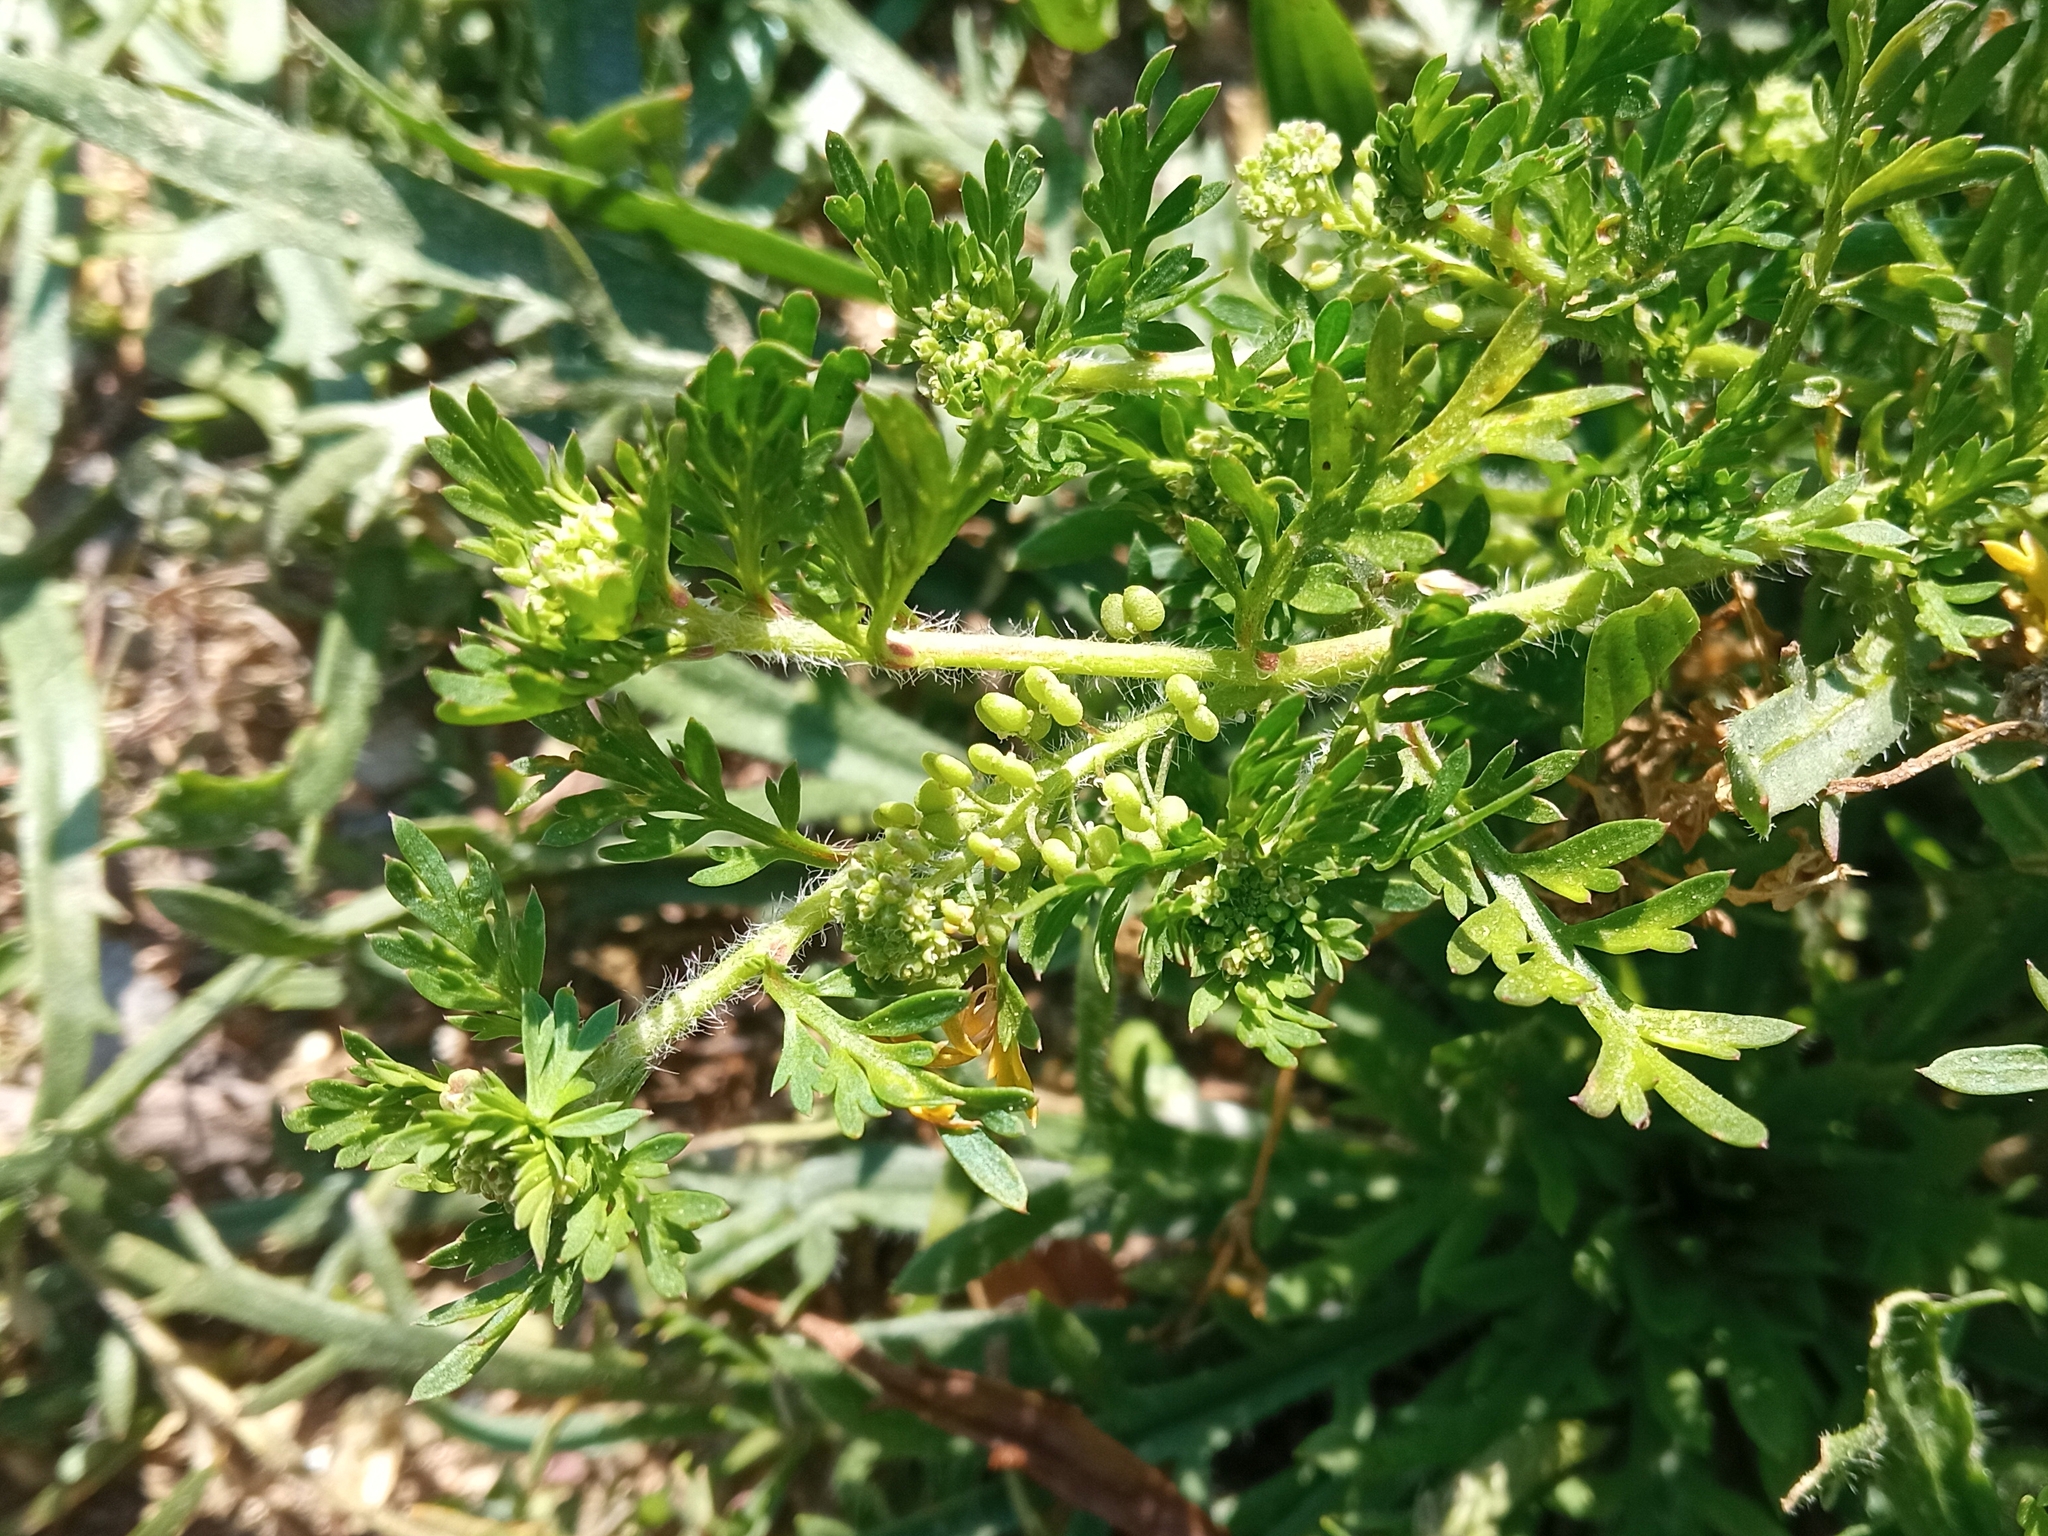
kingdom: Plantae
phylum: Tracheophyta
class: Magnoliopsida
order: Brassicales
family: Brassicaceae
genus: Lepidium
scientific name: Lepidium didymum
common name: Lesser swinecress
